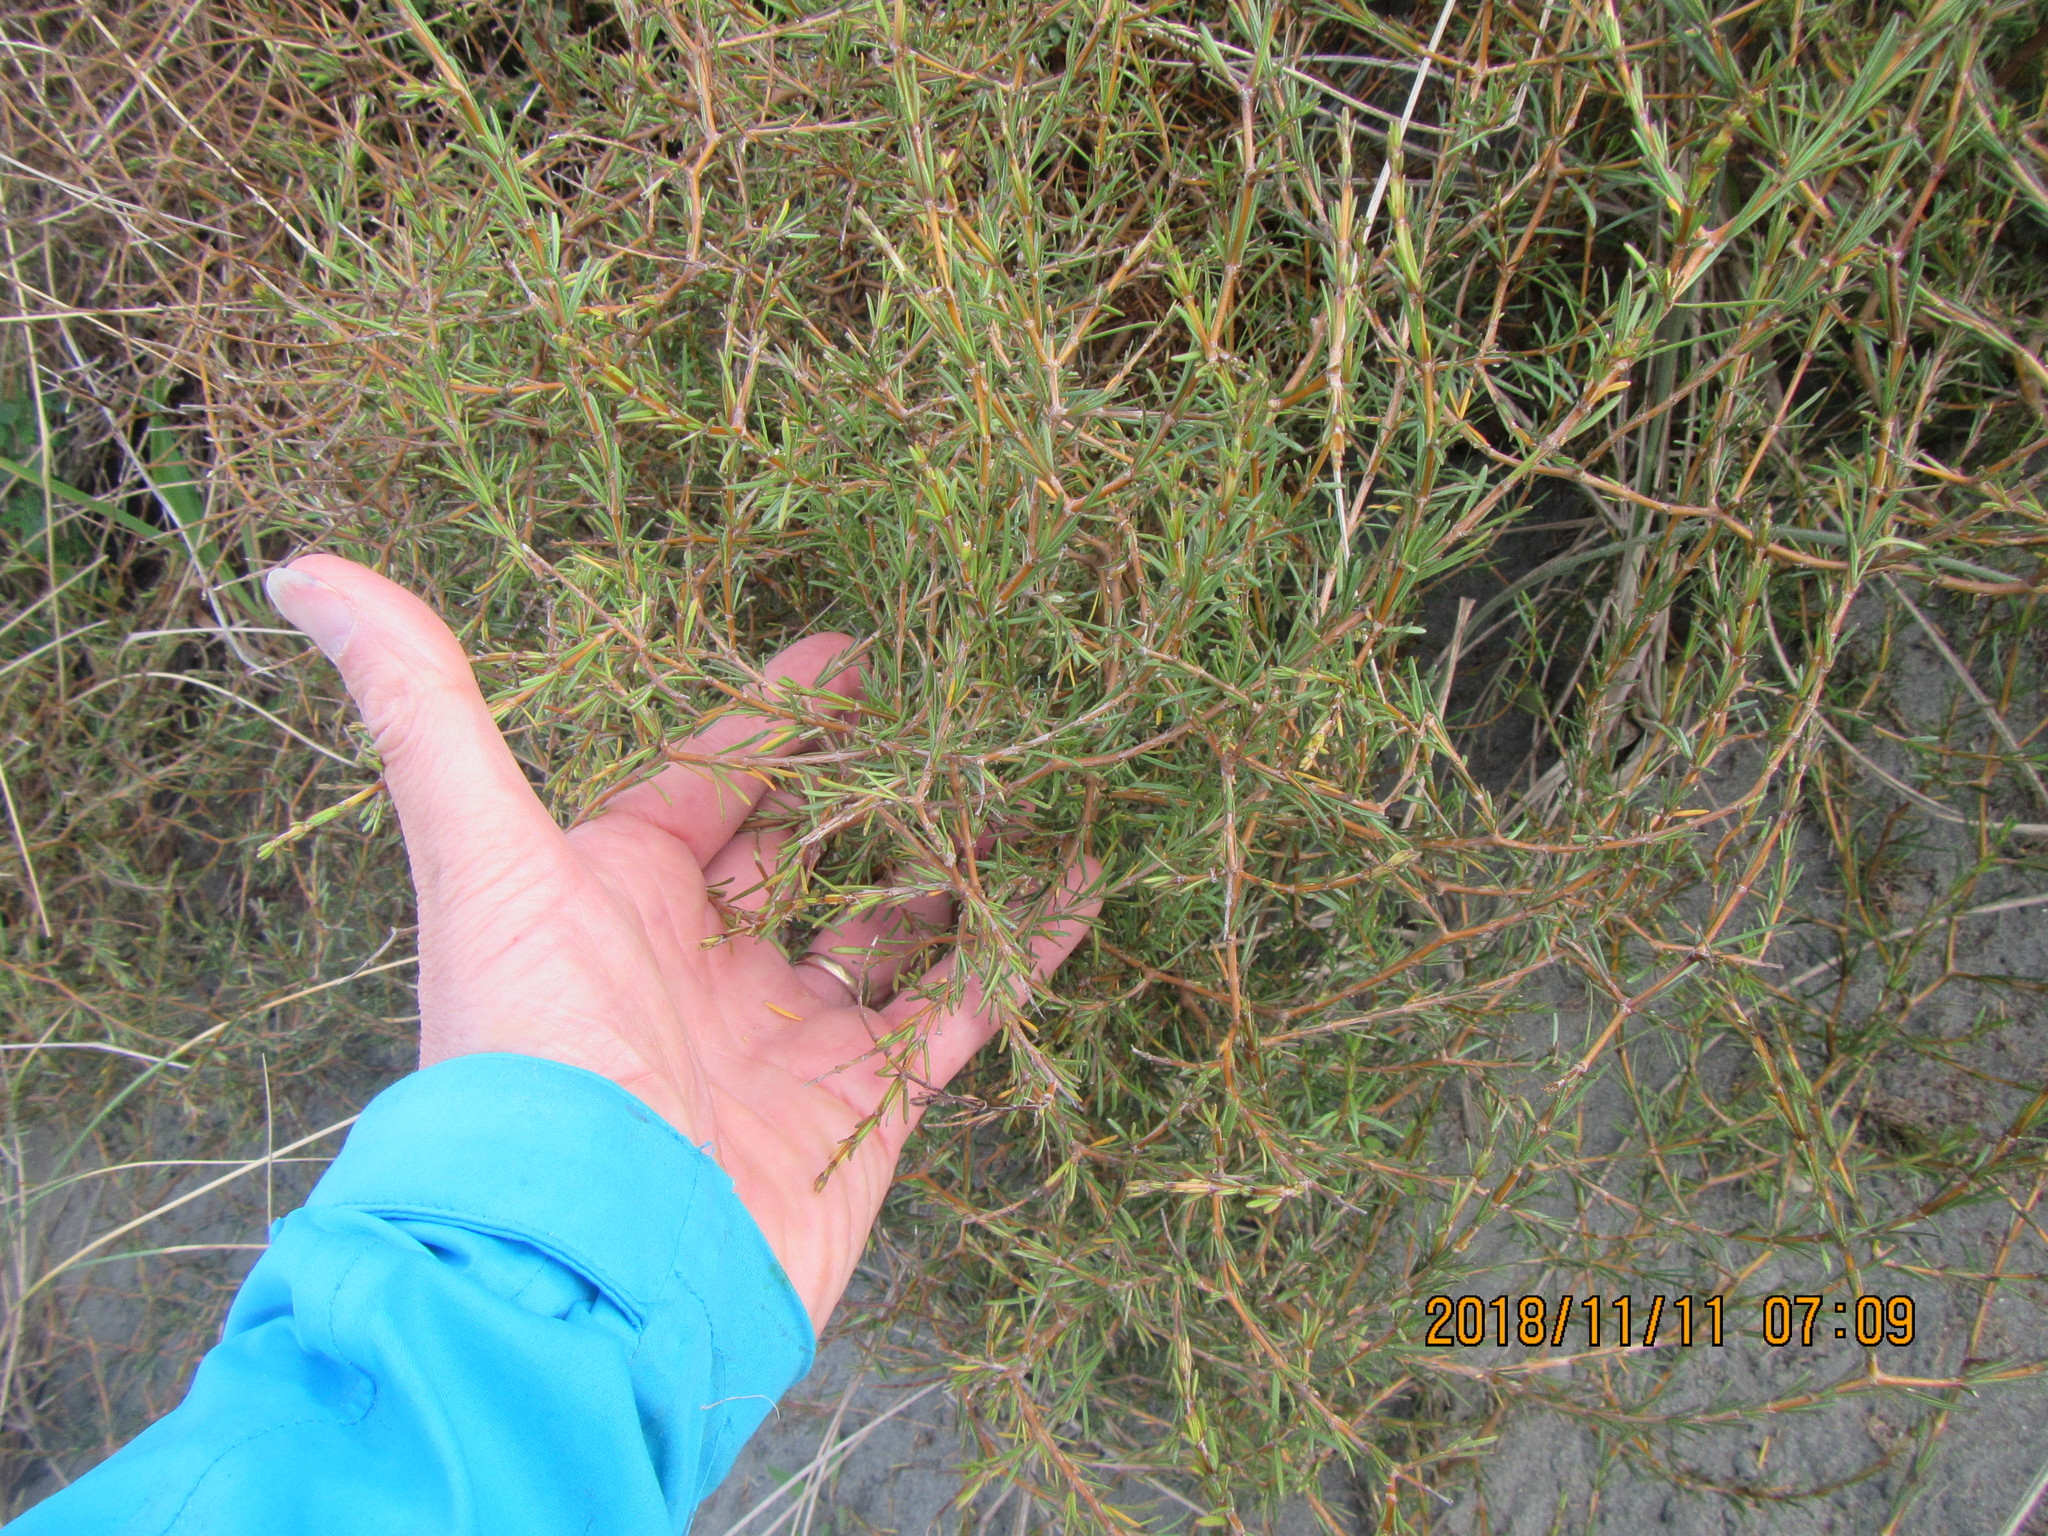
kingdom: Plantae
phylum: Tracheophyta
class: Magnoliopsida
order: Gentianales
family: Rubiaceae
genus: Coprosma
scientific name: Coprosma acerosa
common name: Sand coprosma
